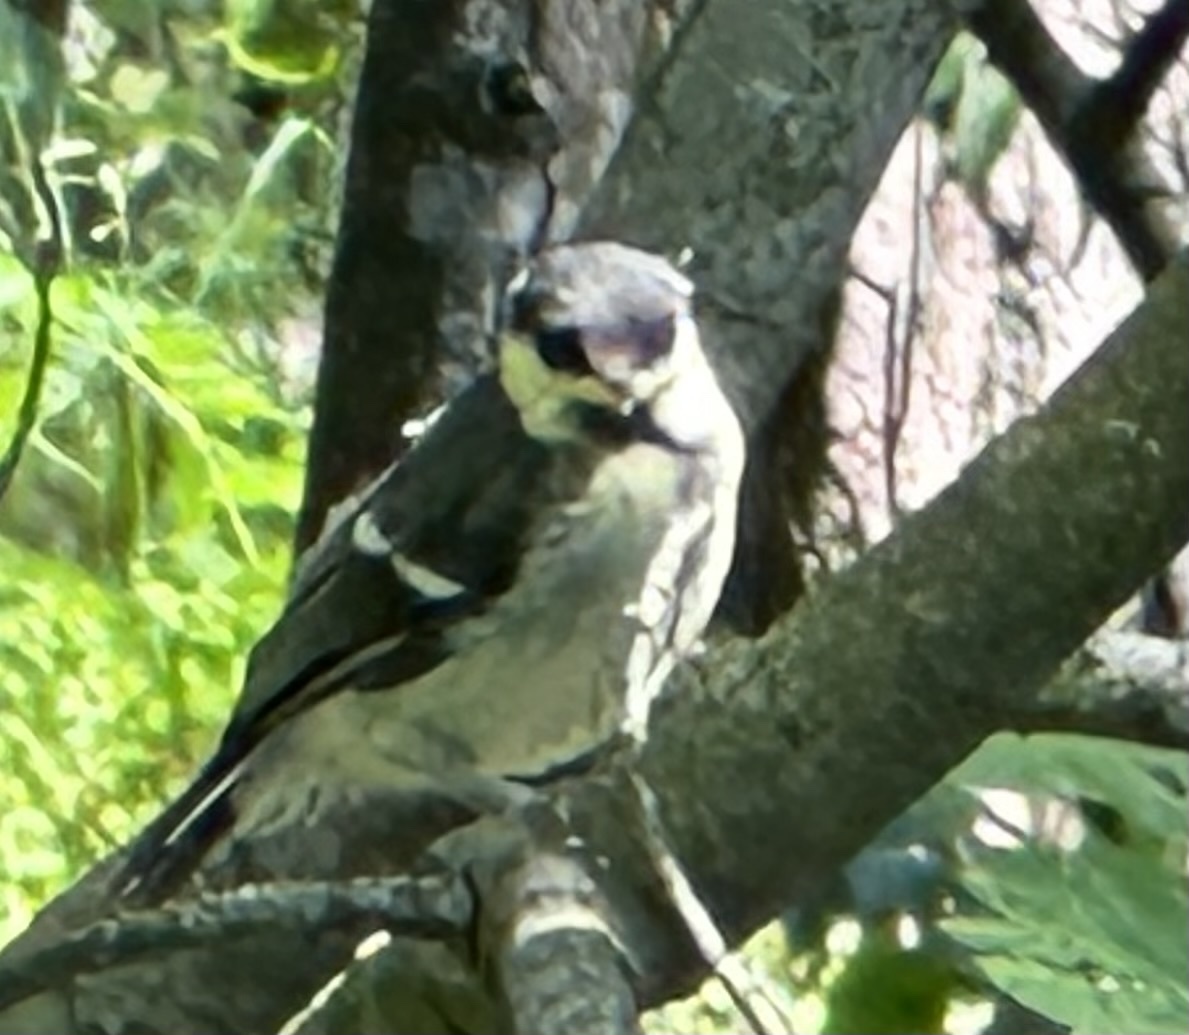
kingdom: Animalia
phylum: Chordata
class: Aves
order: Passeriformes
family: Paridae
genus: Parus
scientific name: Parus major
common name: Great tit
